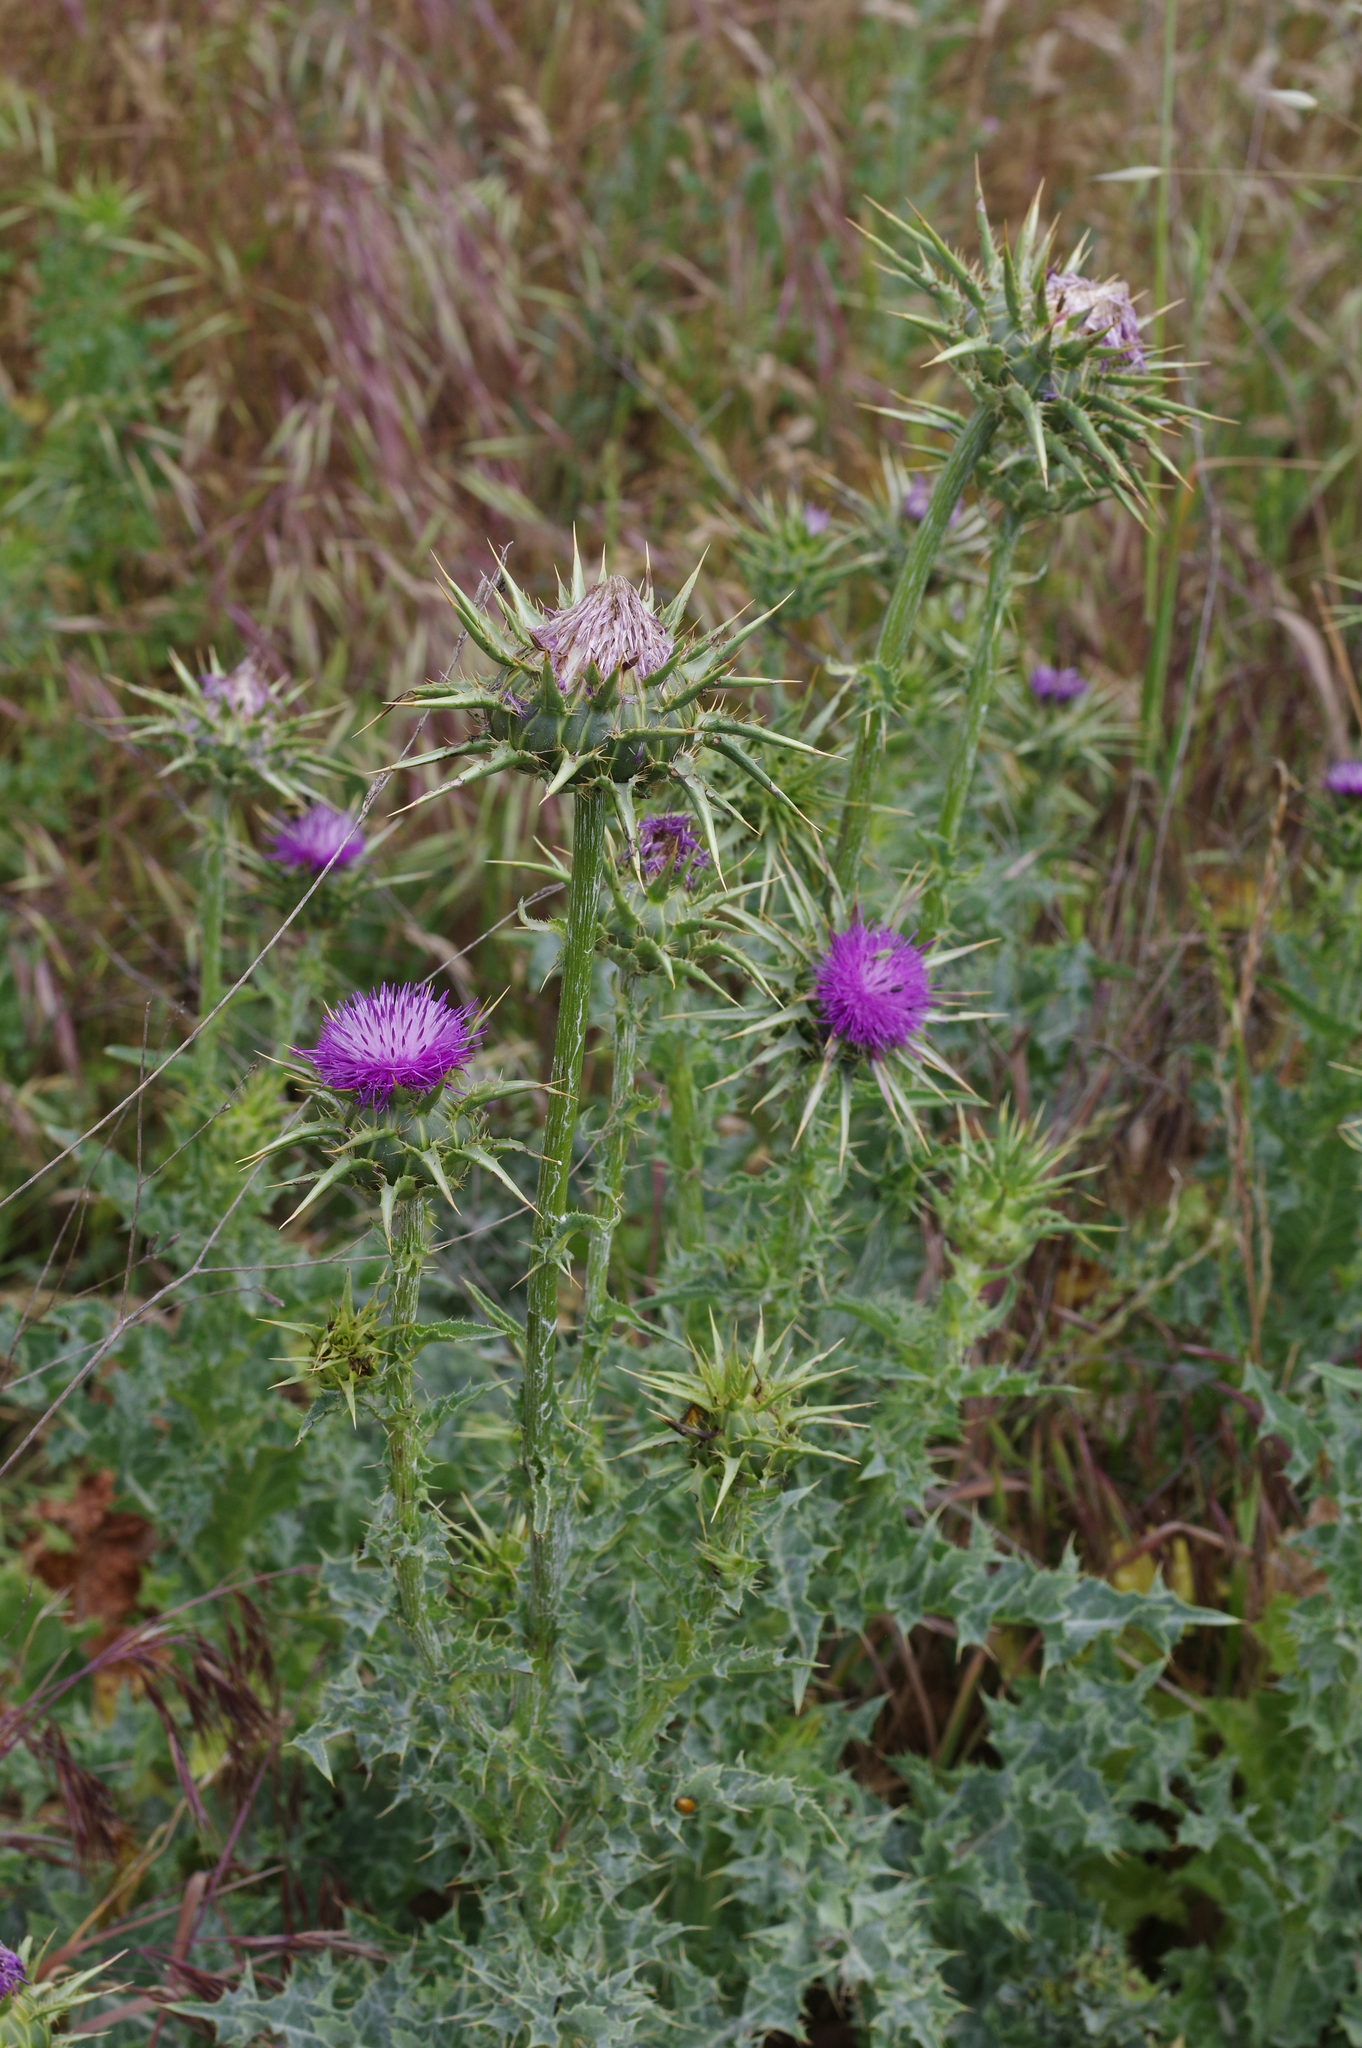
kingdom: Plantae
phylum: Tracheophyta
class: Magnoliopsida
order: Asterales
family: Asteraceae
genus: Silybum
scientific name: Silybum marianum
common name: Milk thistle
